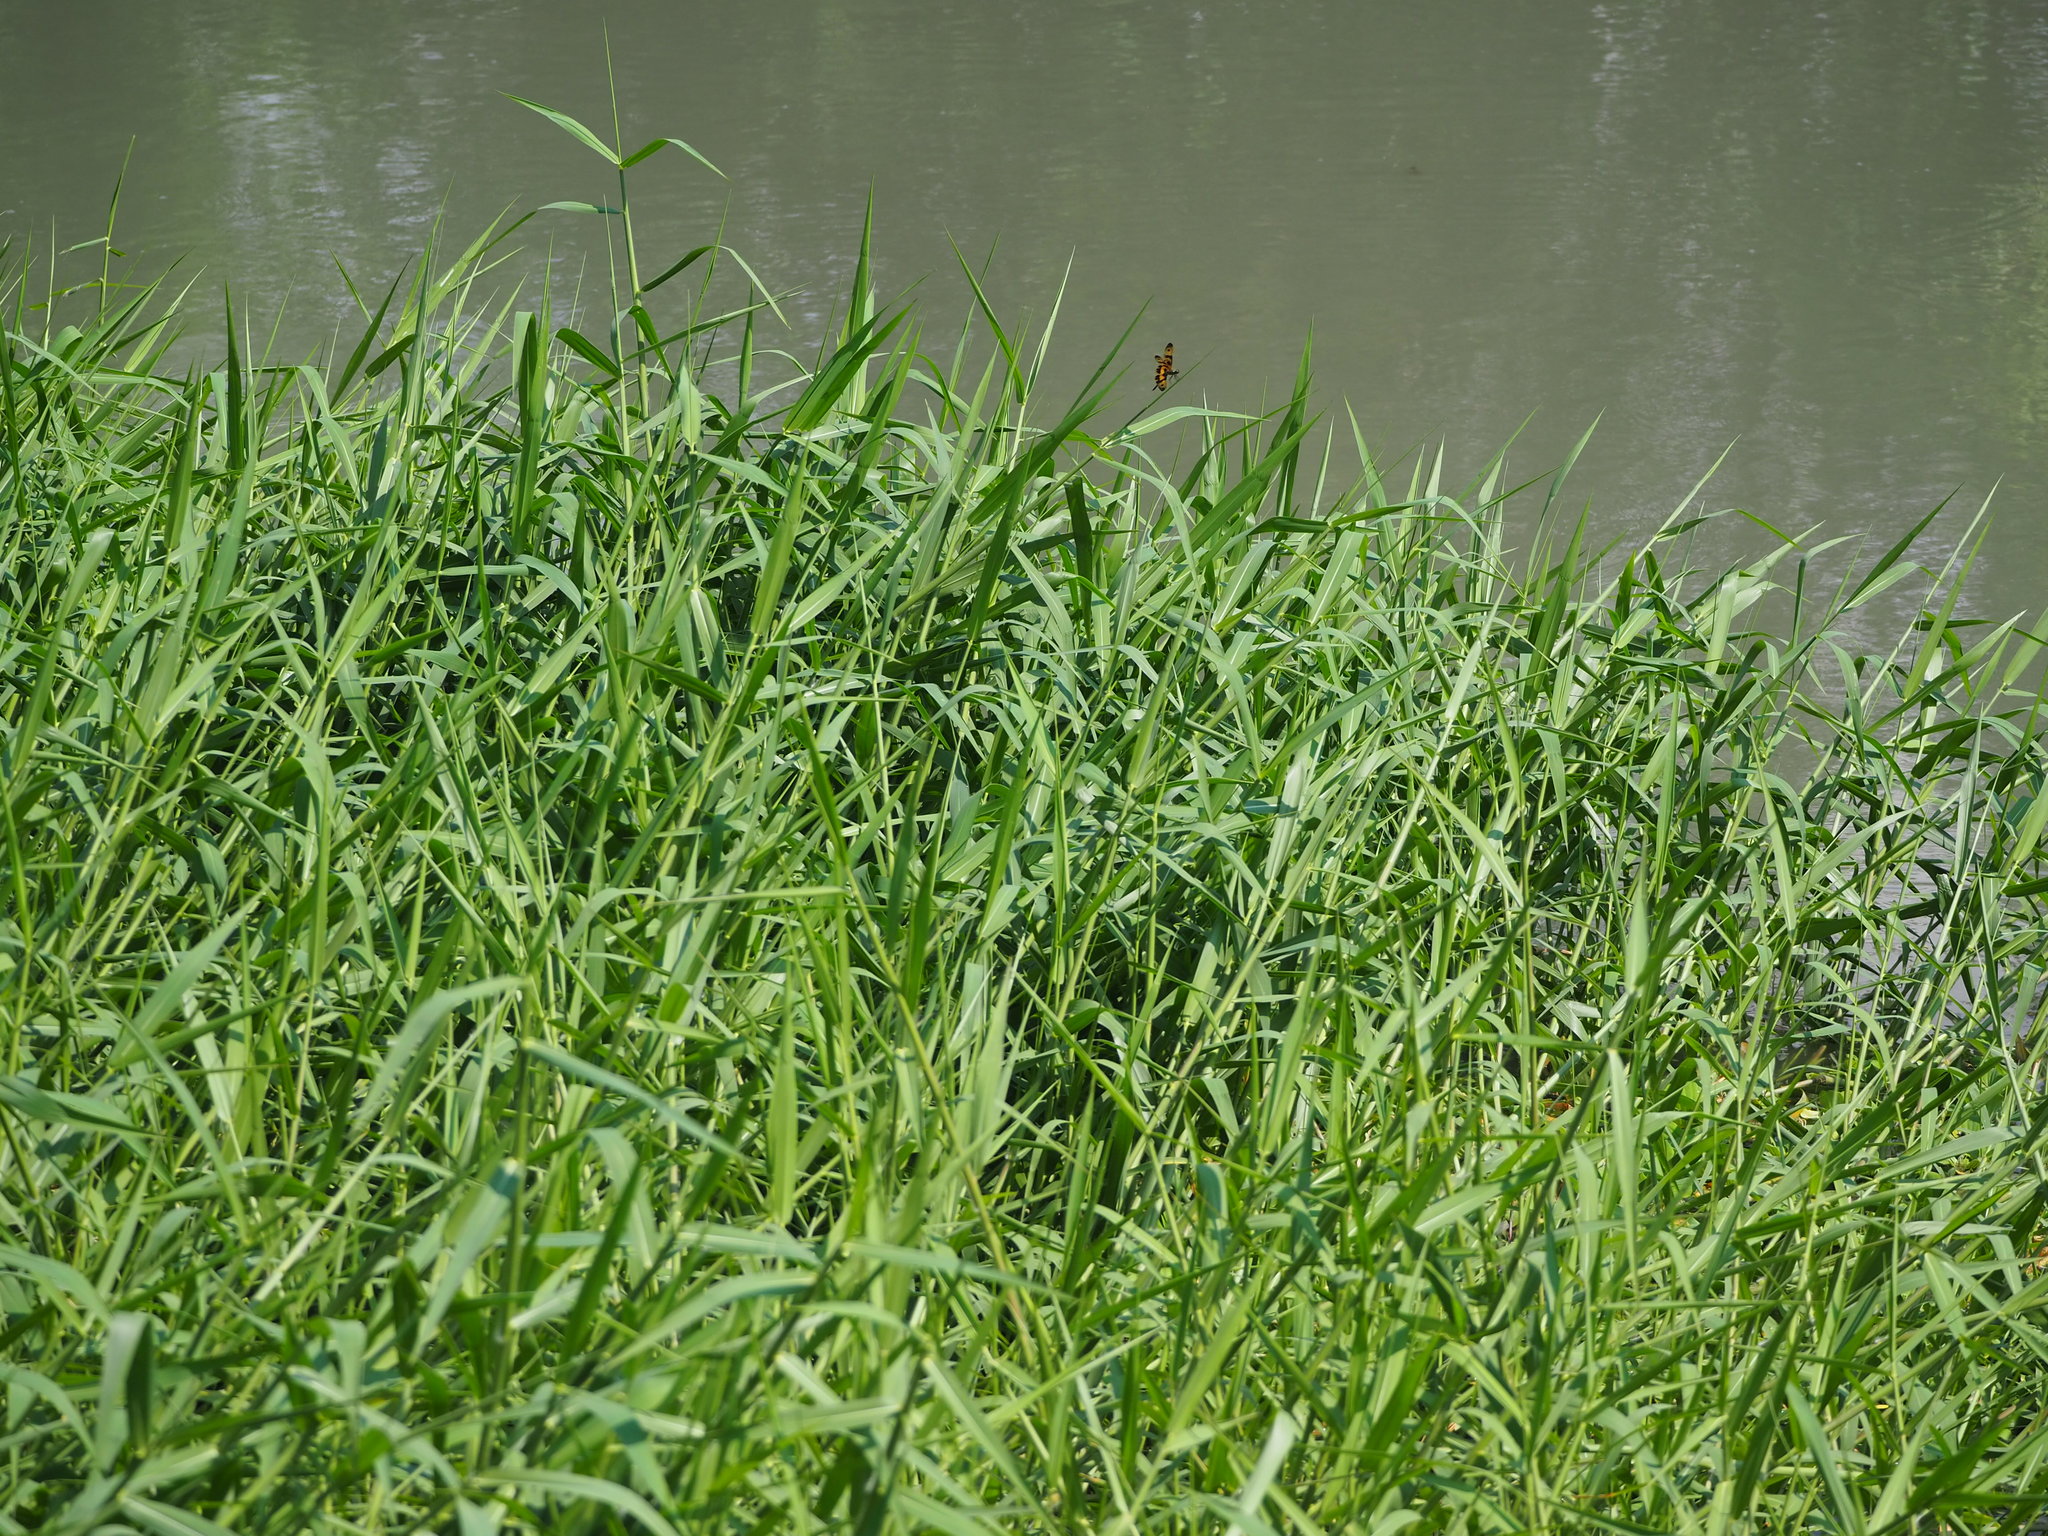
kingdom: Plantae
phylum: Tracheophyta
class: Liliopsida
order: Poales
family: Poaceae
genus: Urochloa
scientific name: Urochloa mutica
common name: Para grass
